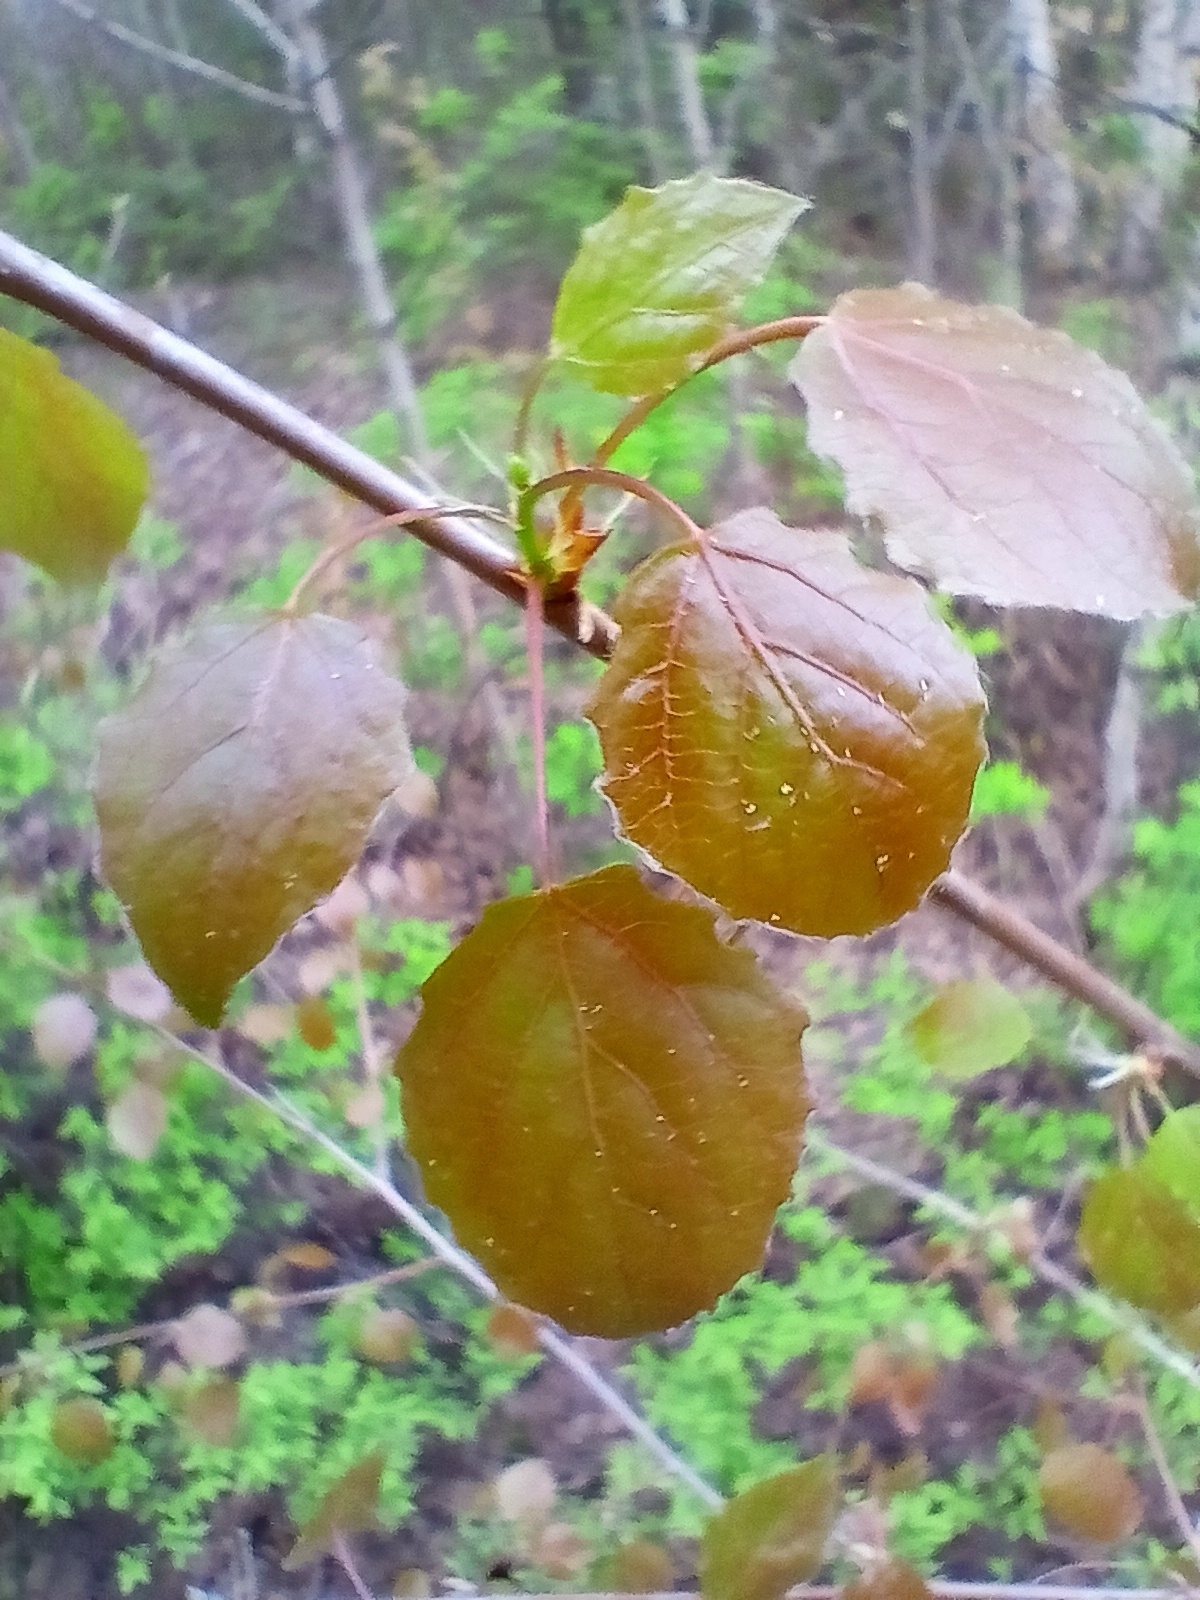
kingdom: Plantae
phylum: Tracheophyta
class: Magnoliopsida
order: Malpighiales
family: Salicaceae
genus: Populus
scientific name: Populus tremula
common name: European aspen
